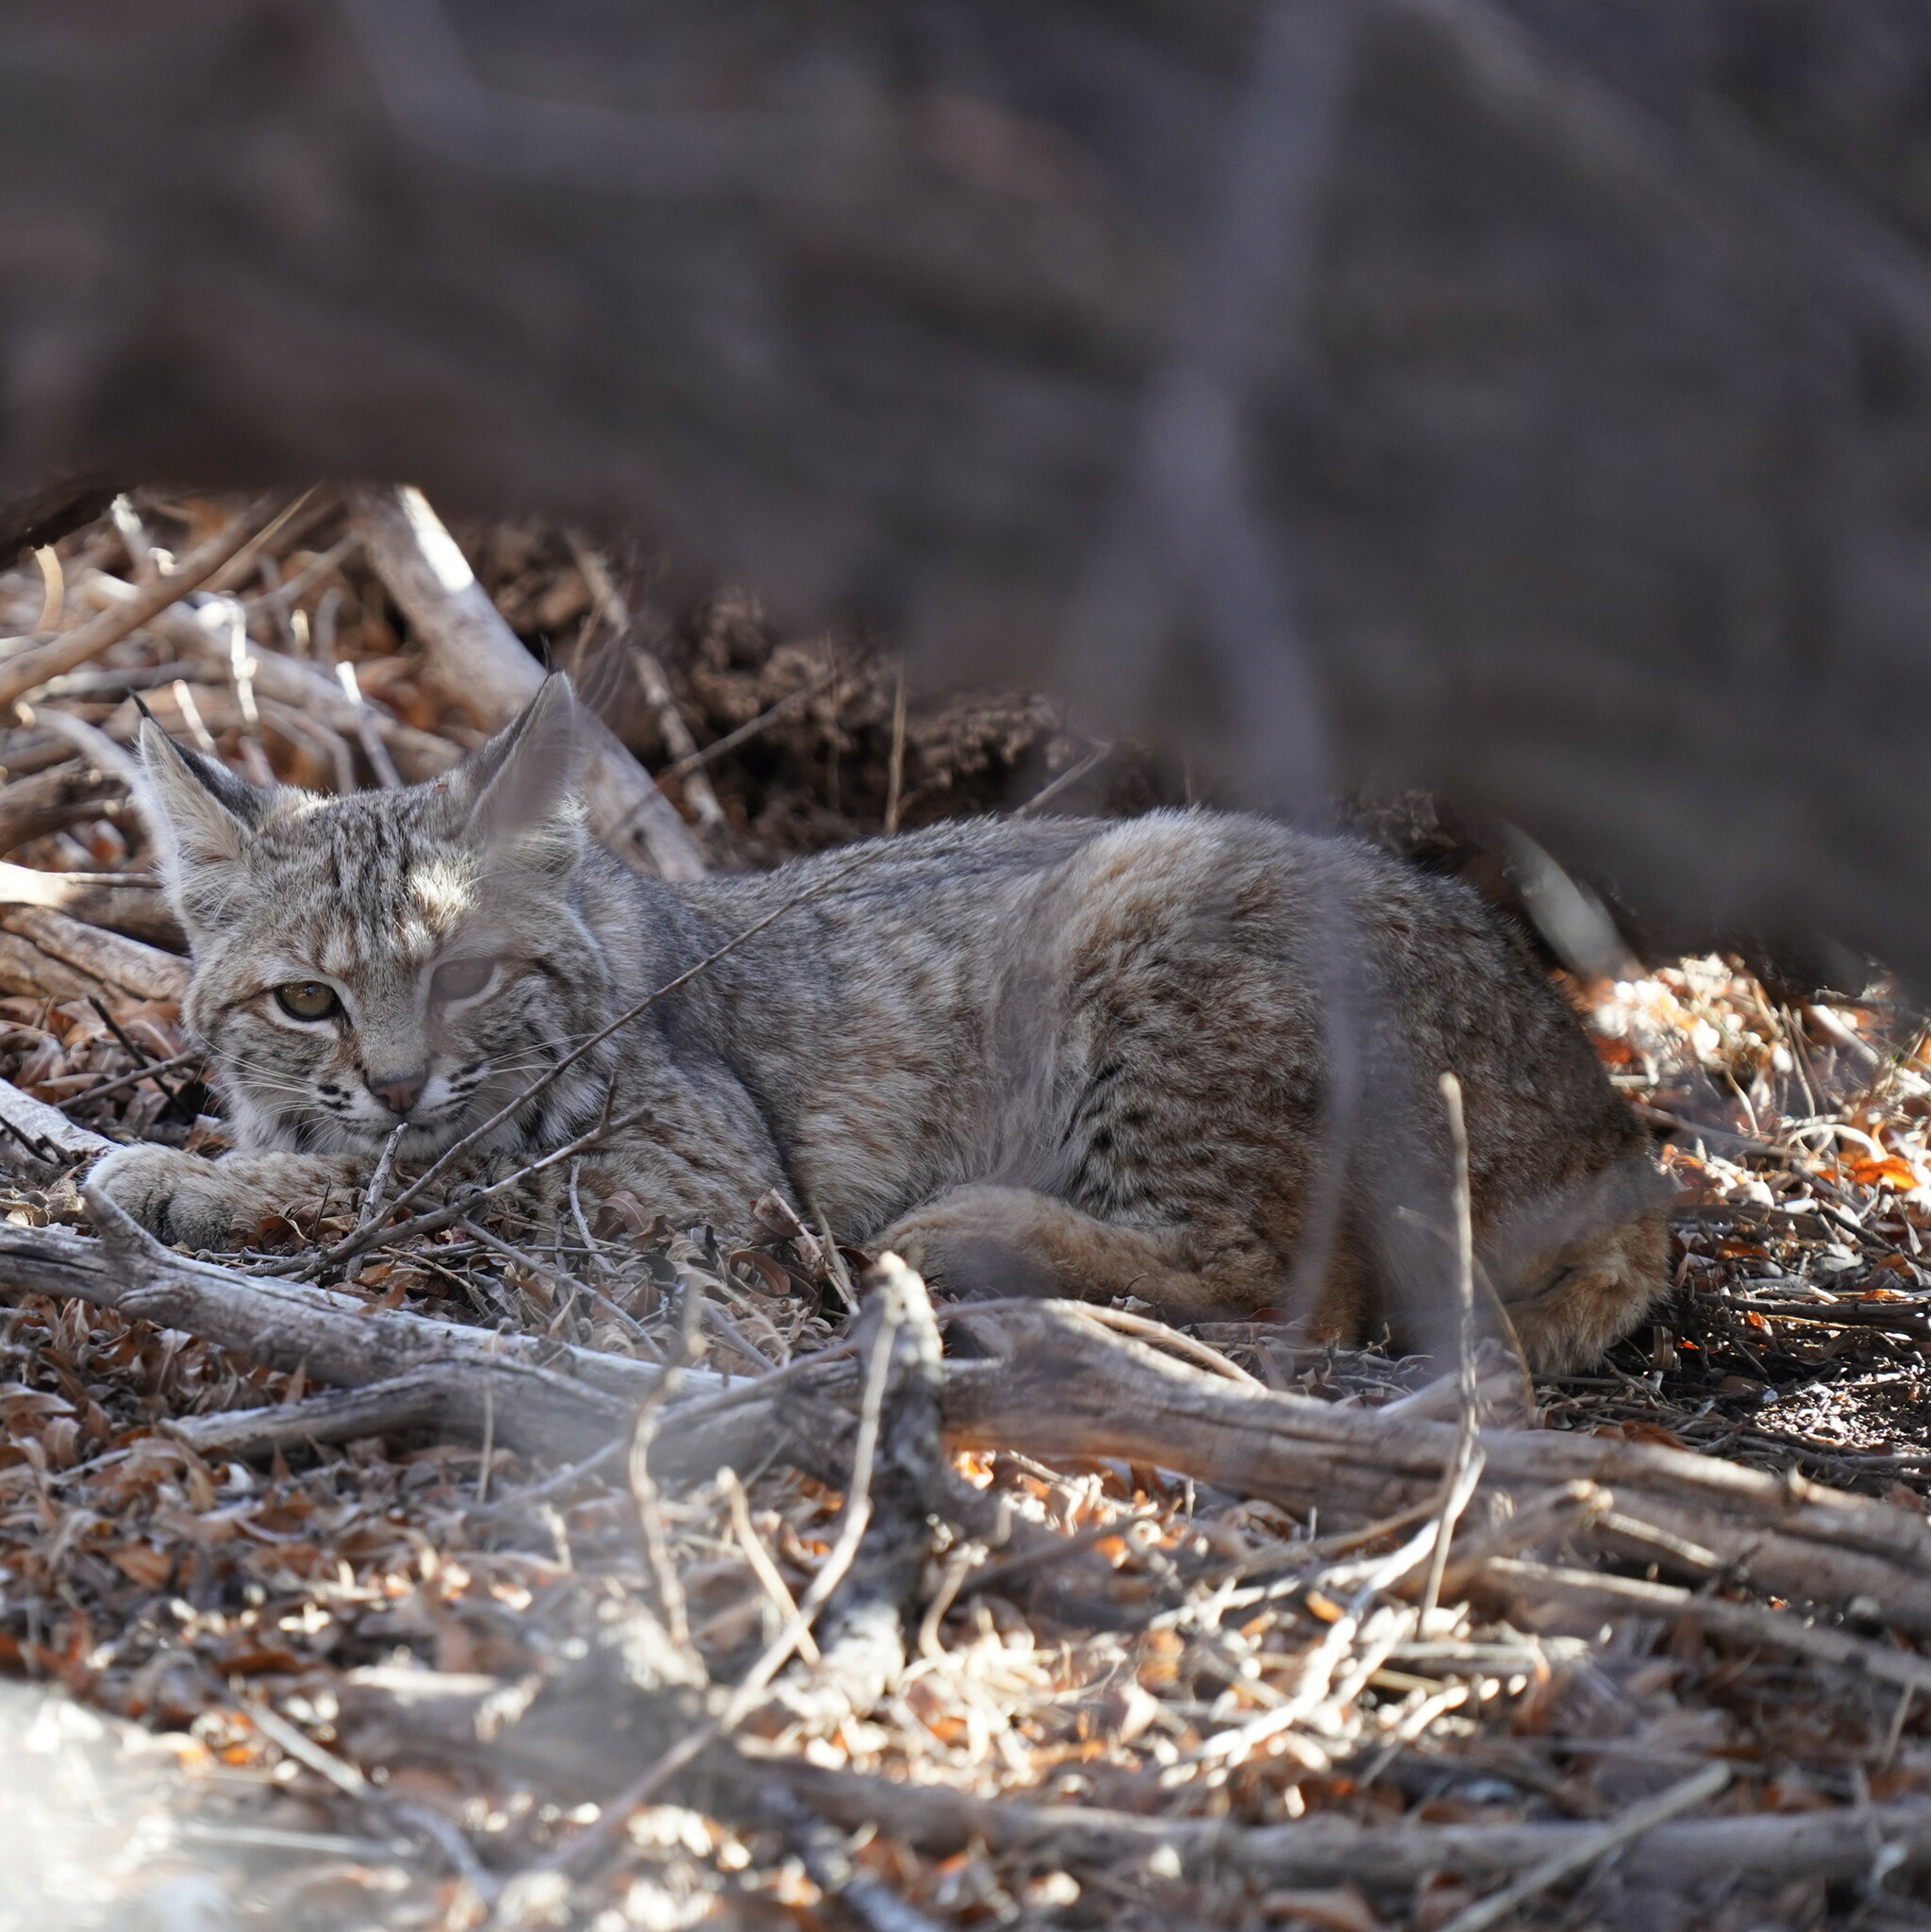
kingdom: Animalia
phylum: Chordata
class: Mammalia
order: Carnivora
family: Felidae
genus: Lynx
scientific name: Lynx rufus
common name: Bobcat
